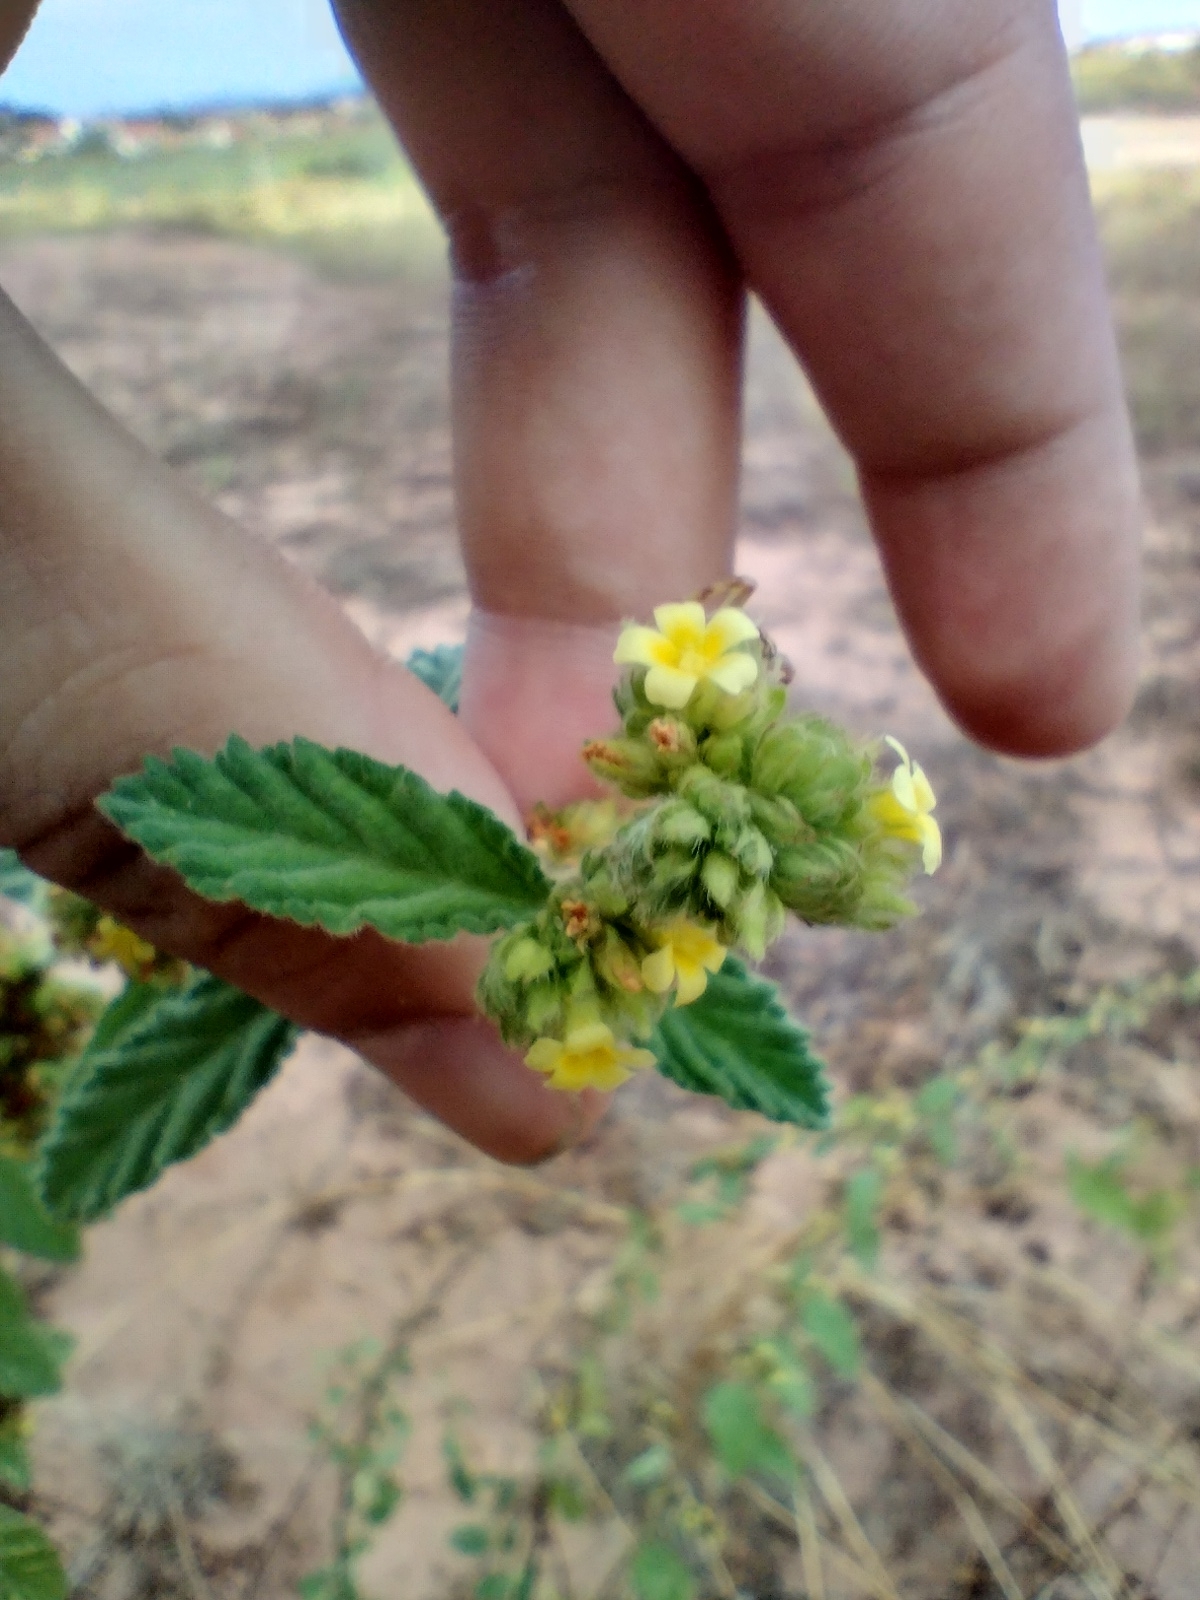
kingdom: Plantae
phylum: Tracheophyta
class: Magnoliopsida
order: Malvales
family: Malvaceae
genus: Waltheria
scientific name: Waltheria indica
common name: Leather-coat
